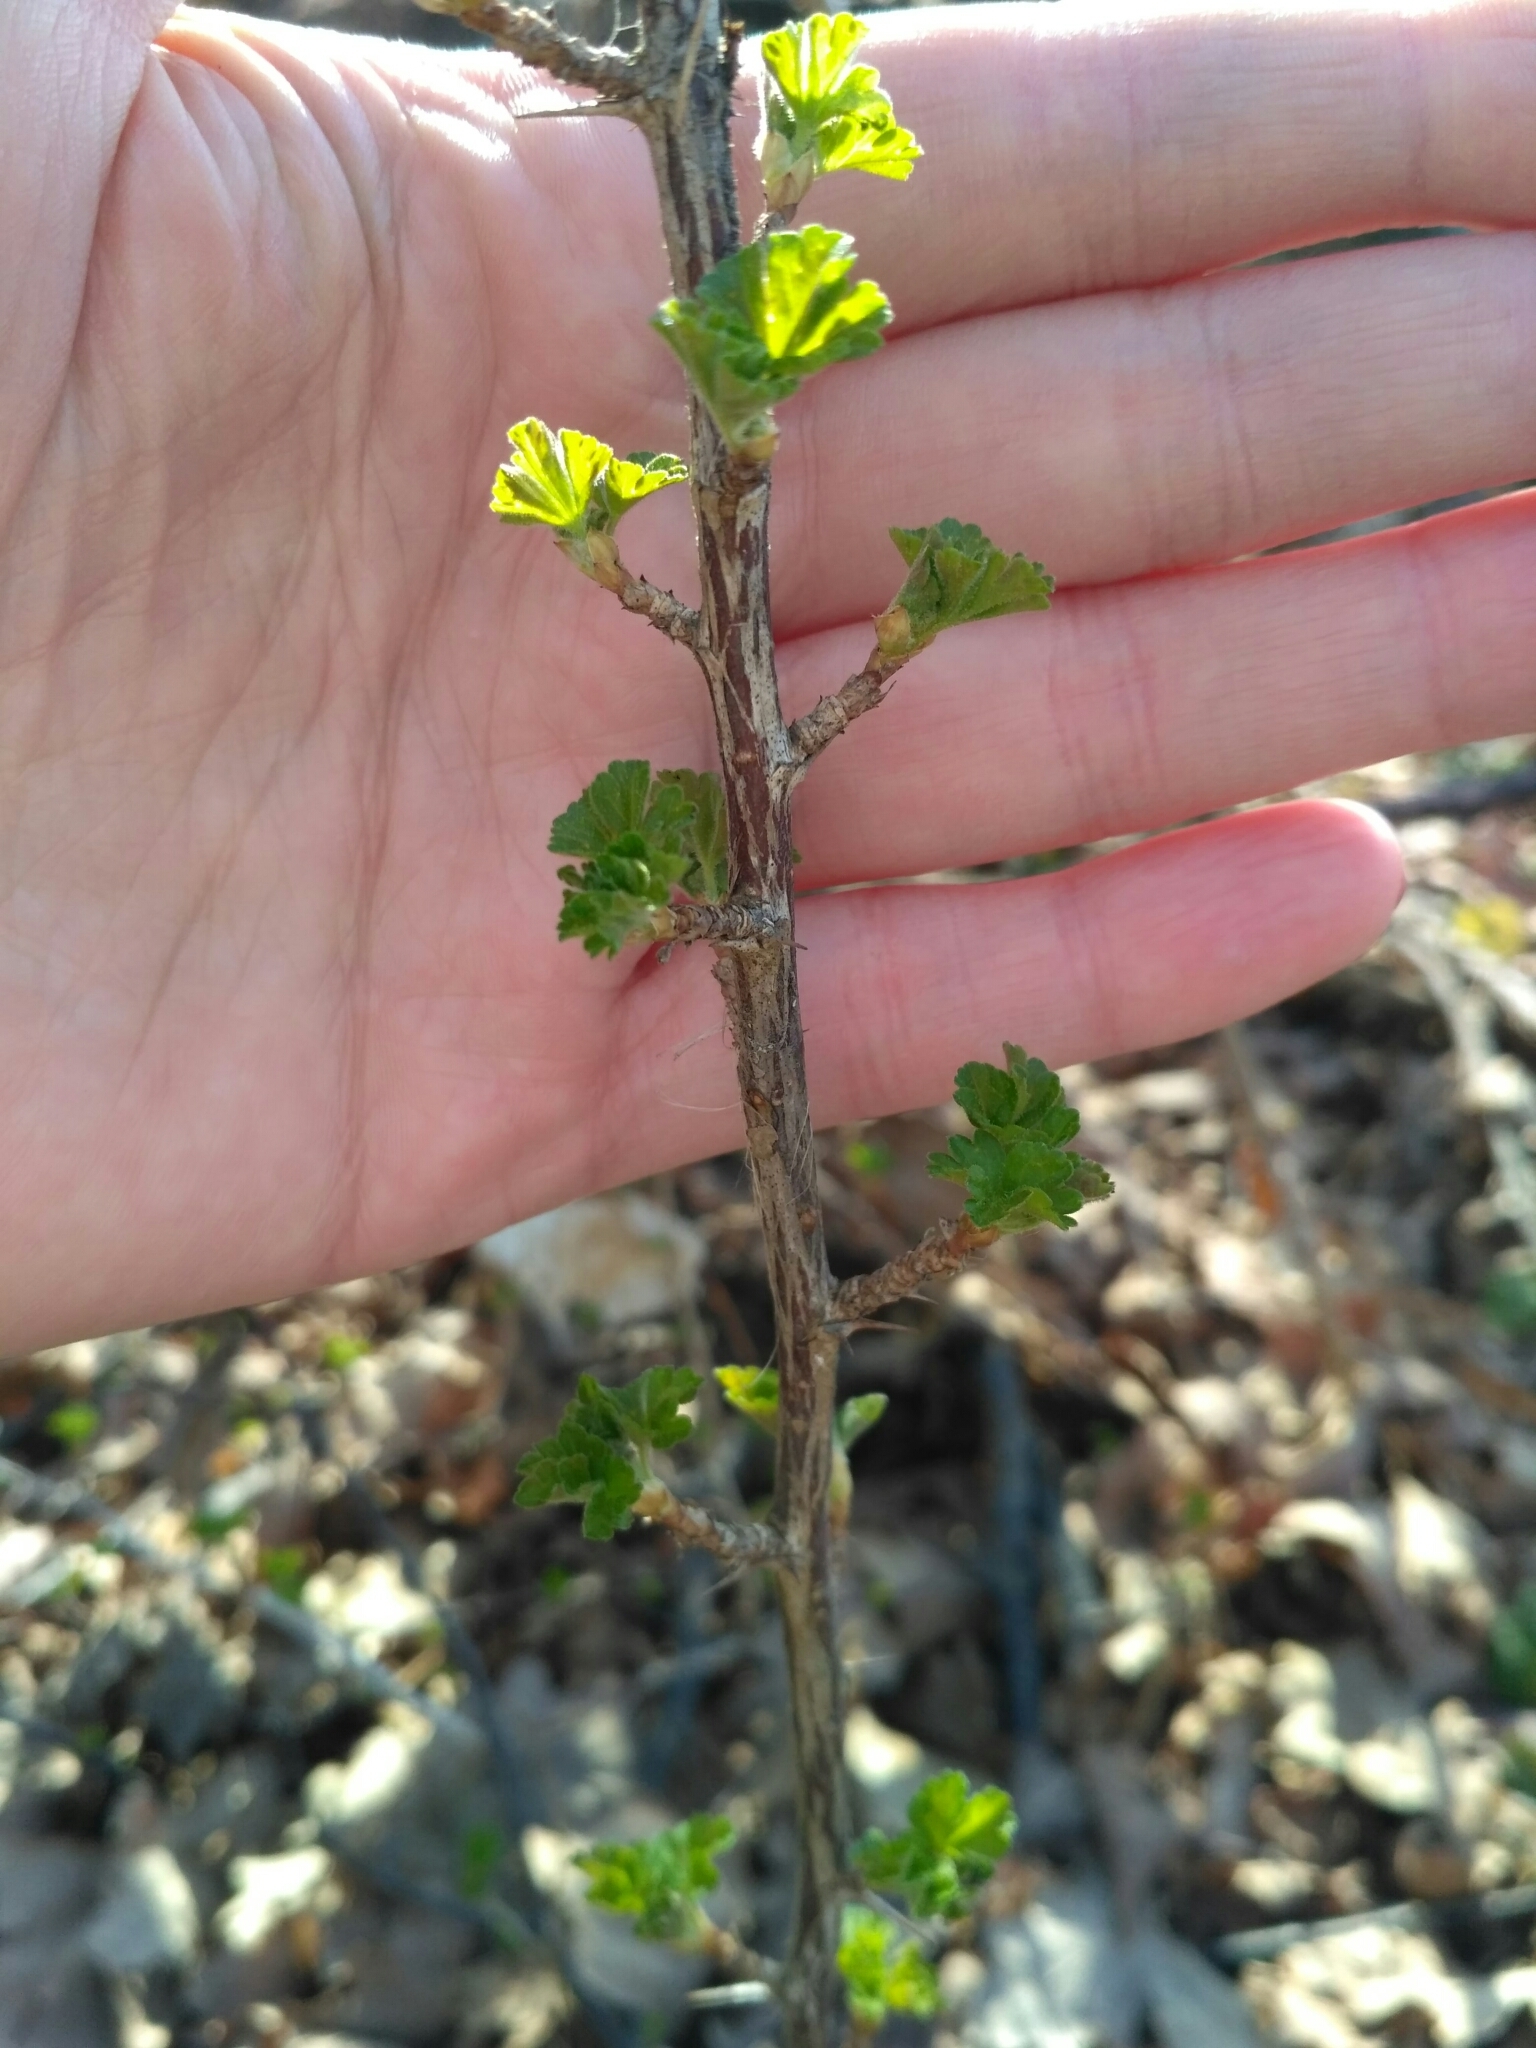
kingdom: Plantae
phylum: Tracheophyta
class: Magnoliopsida
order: Saxifragales
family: Grossulariaceae
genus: Ribes
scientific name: Ribes uva-crispa
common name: Gooseberry
